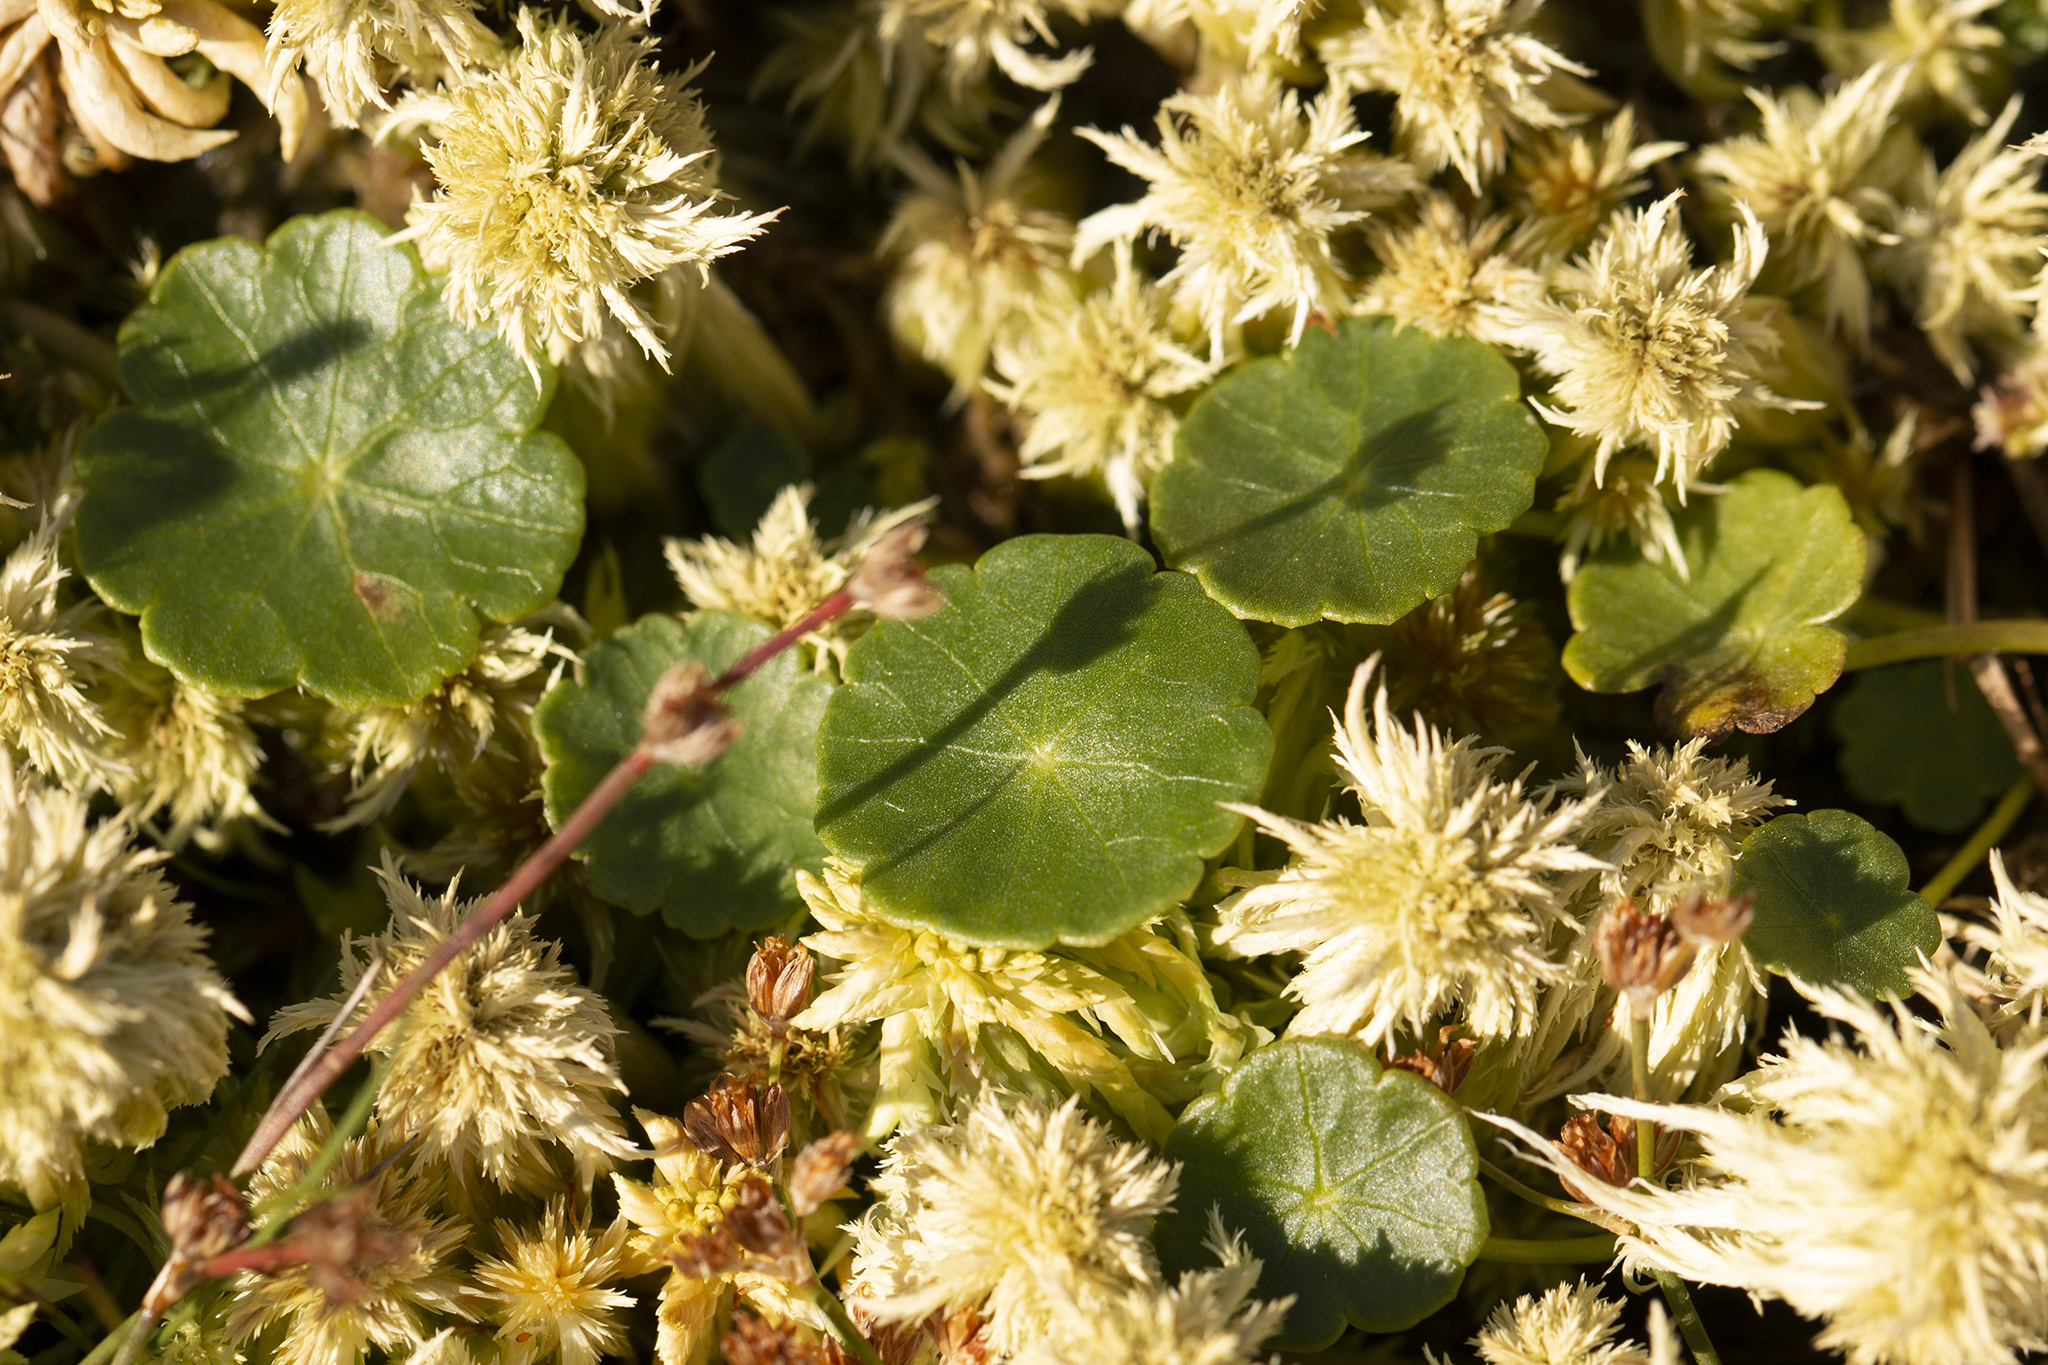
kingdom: Plantae
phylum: Tracheophyta
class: Magnoliopsida
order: Apiales
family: Araliaceae
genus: Hydrocotyle
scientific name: Hydrocotyle vulgaris
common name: Marsh pennywort
